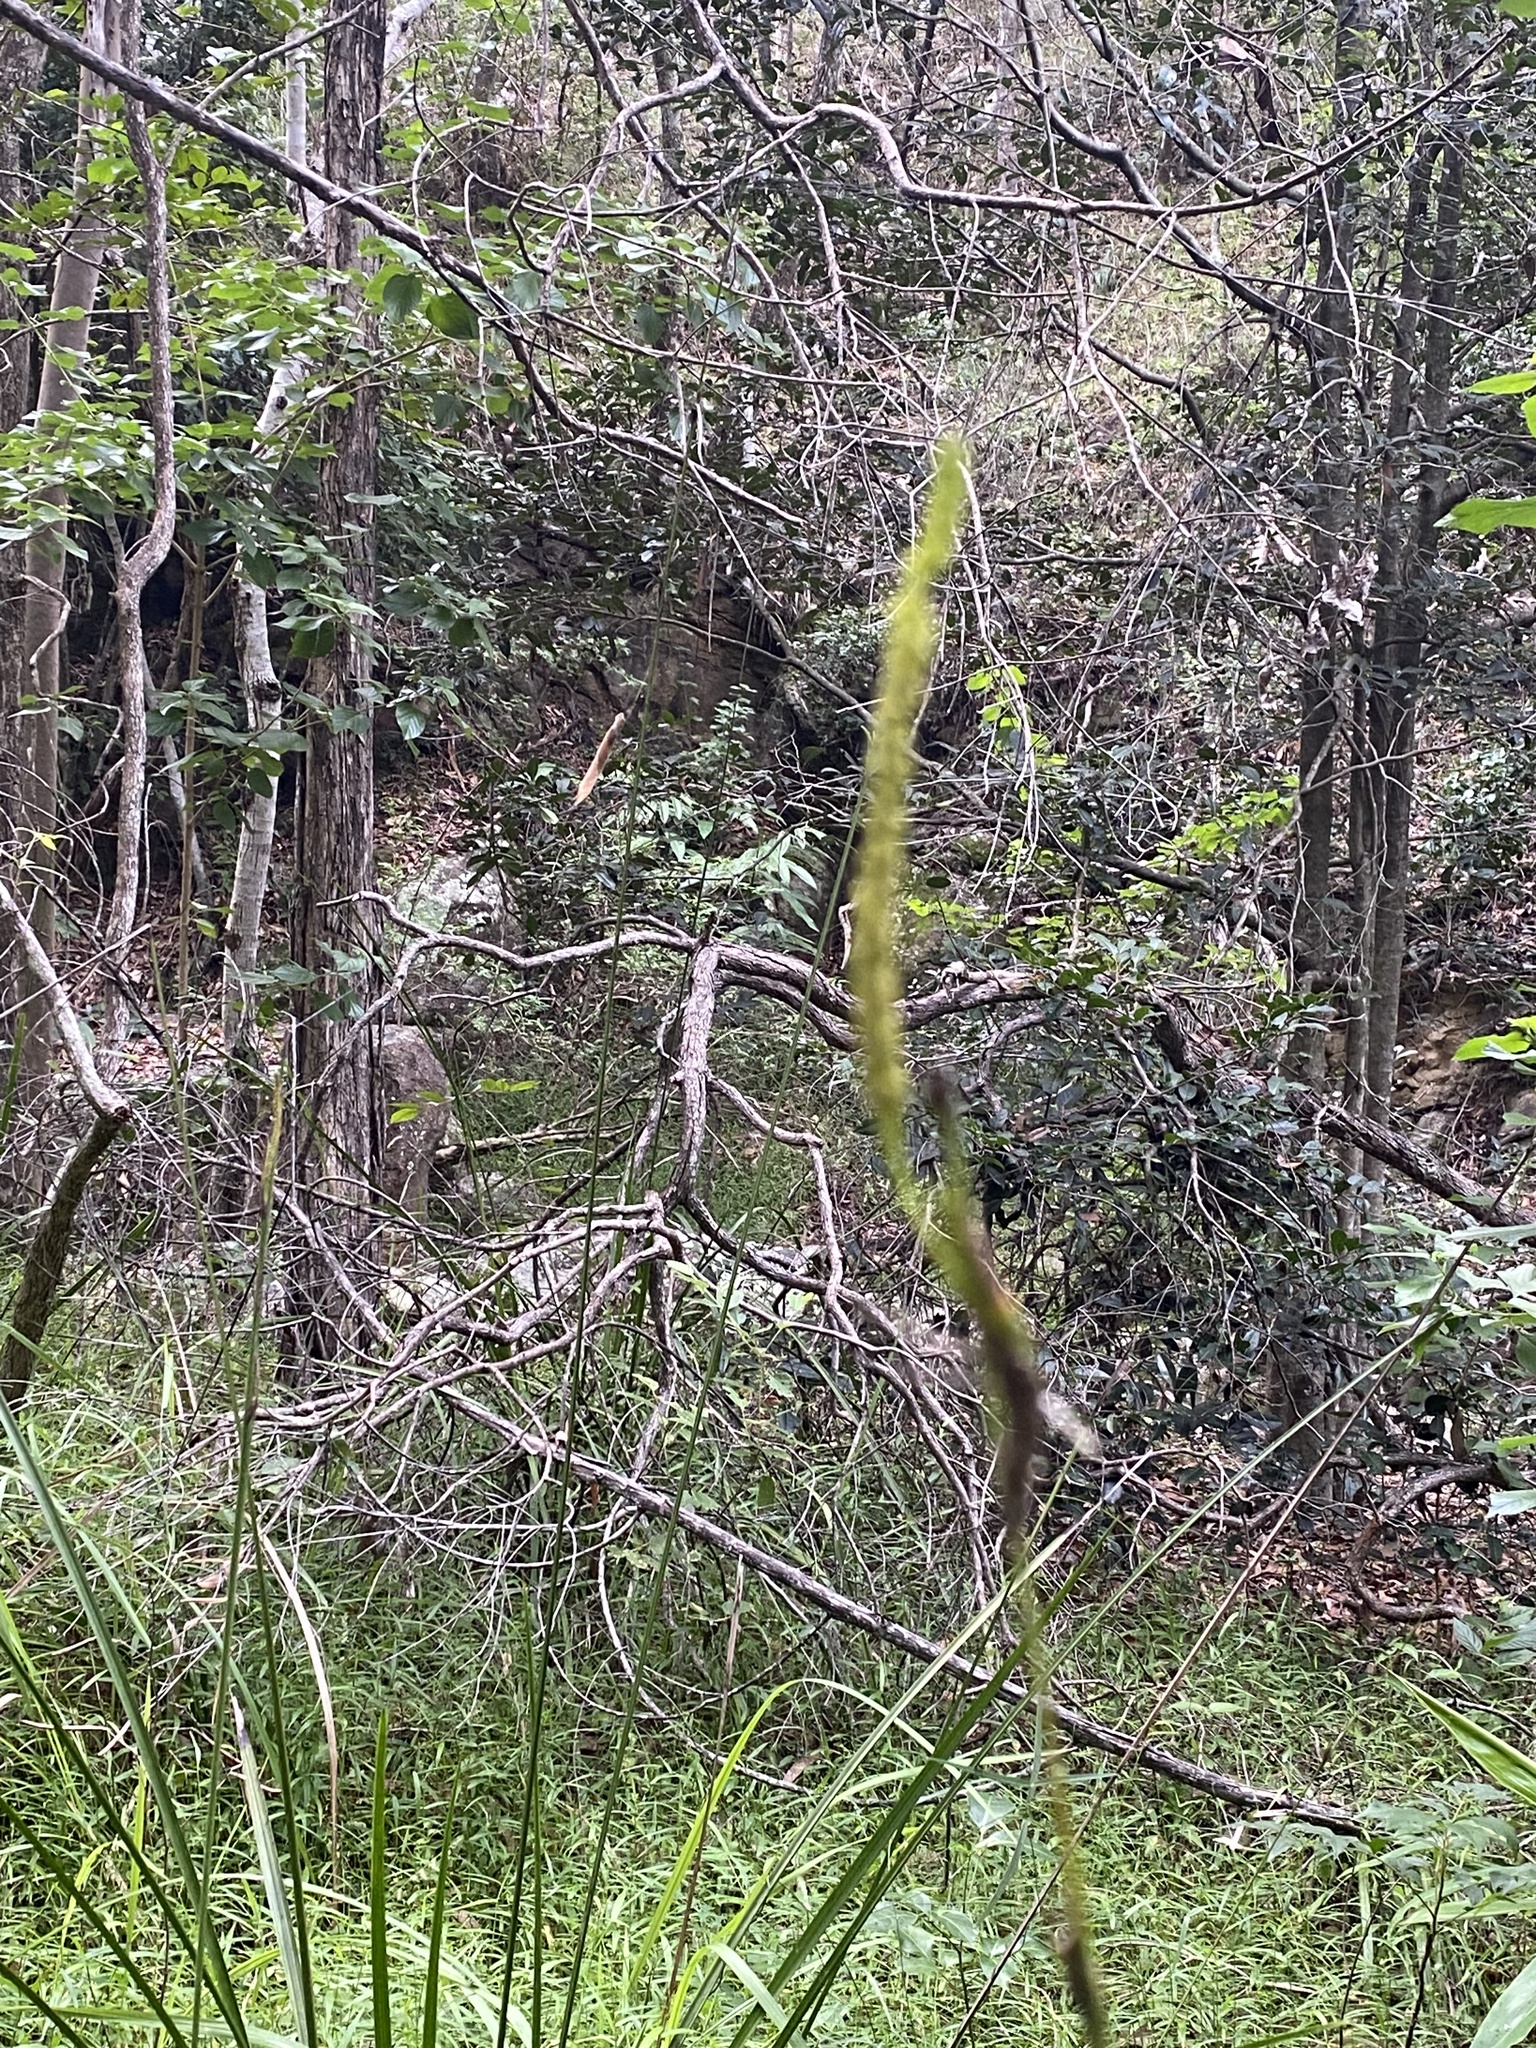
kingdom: Plantae
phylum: Tracheophyta
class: Liliopsida
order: Alismatales
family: Araceae
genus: Gymnostachys
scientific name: Gymnostachys anceps
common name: Settler's-flax
